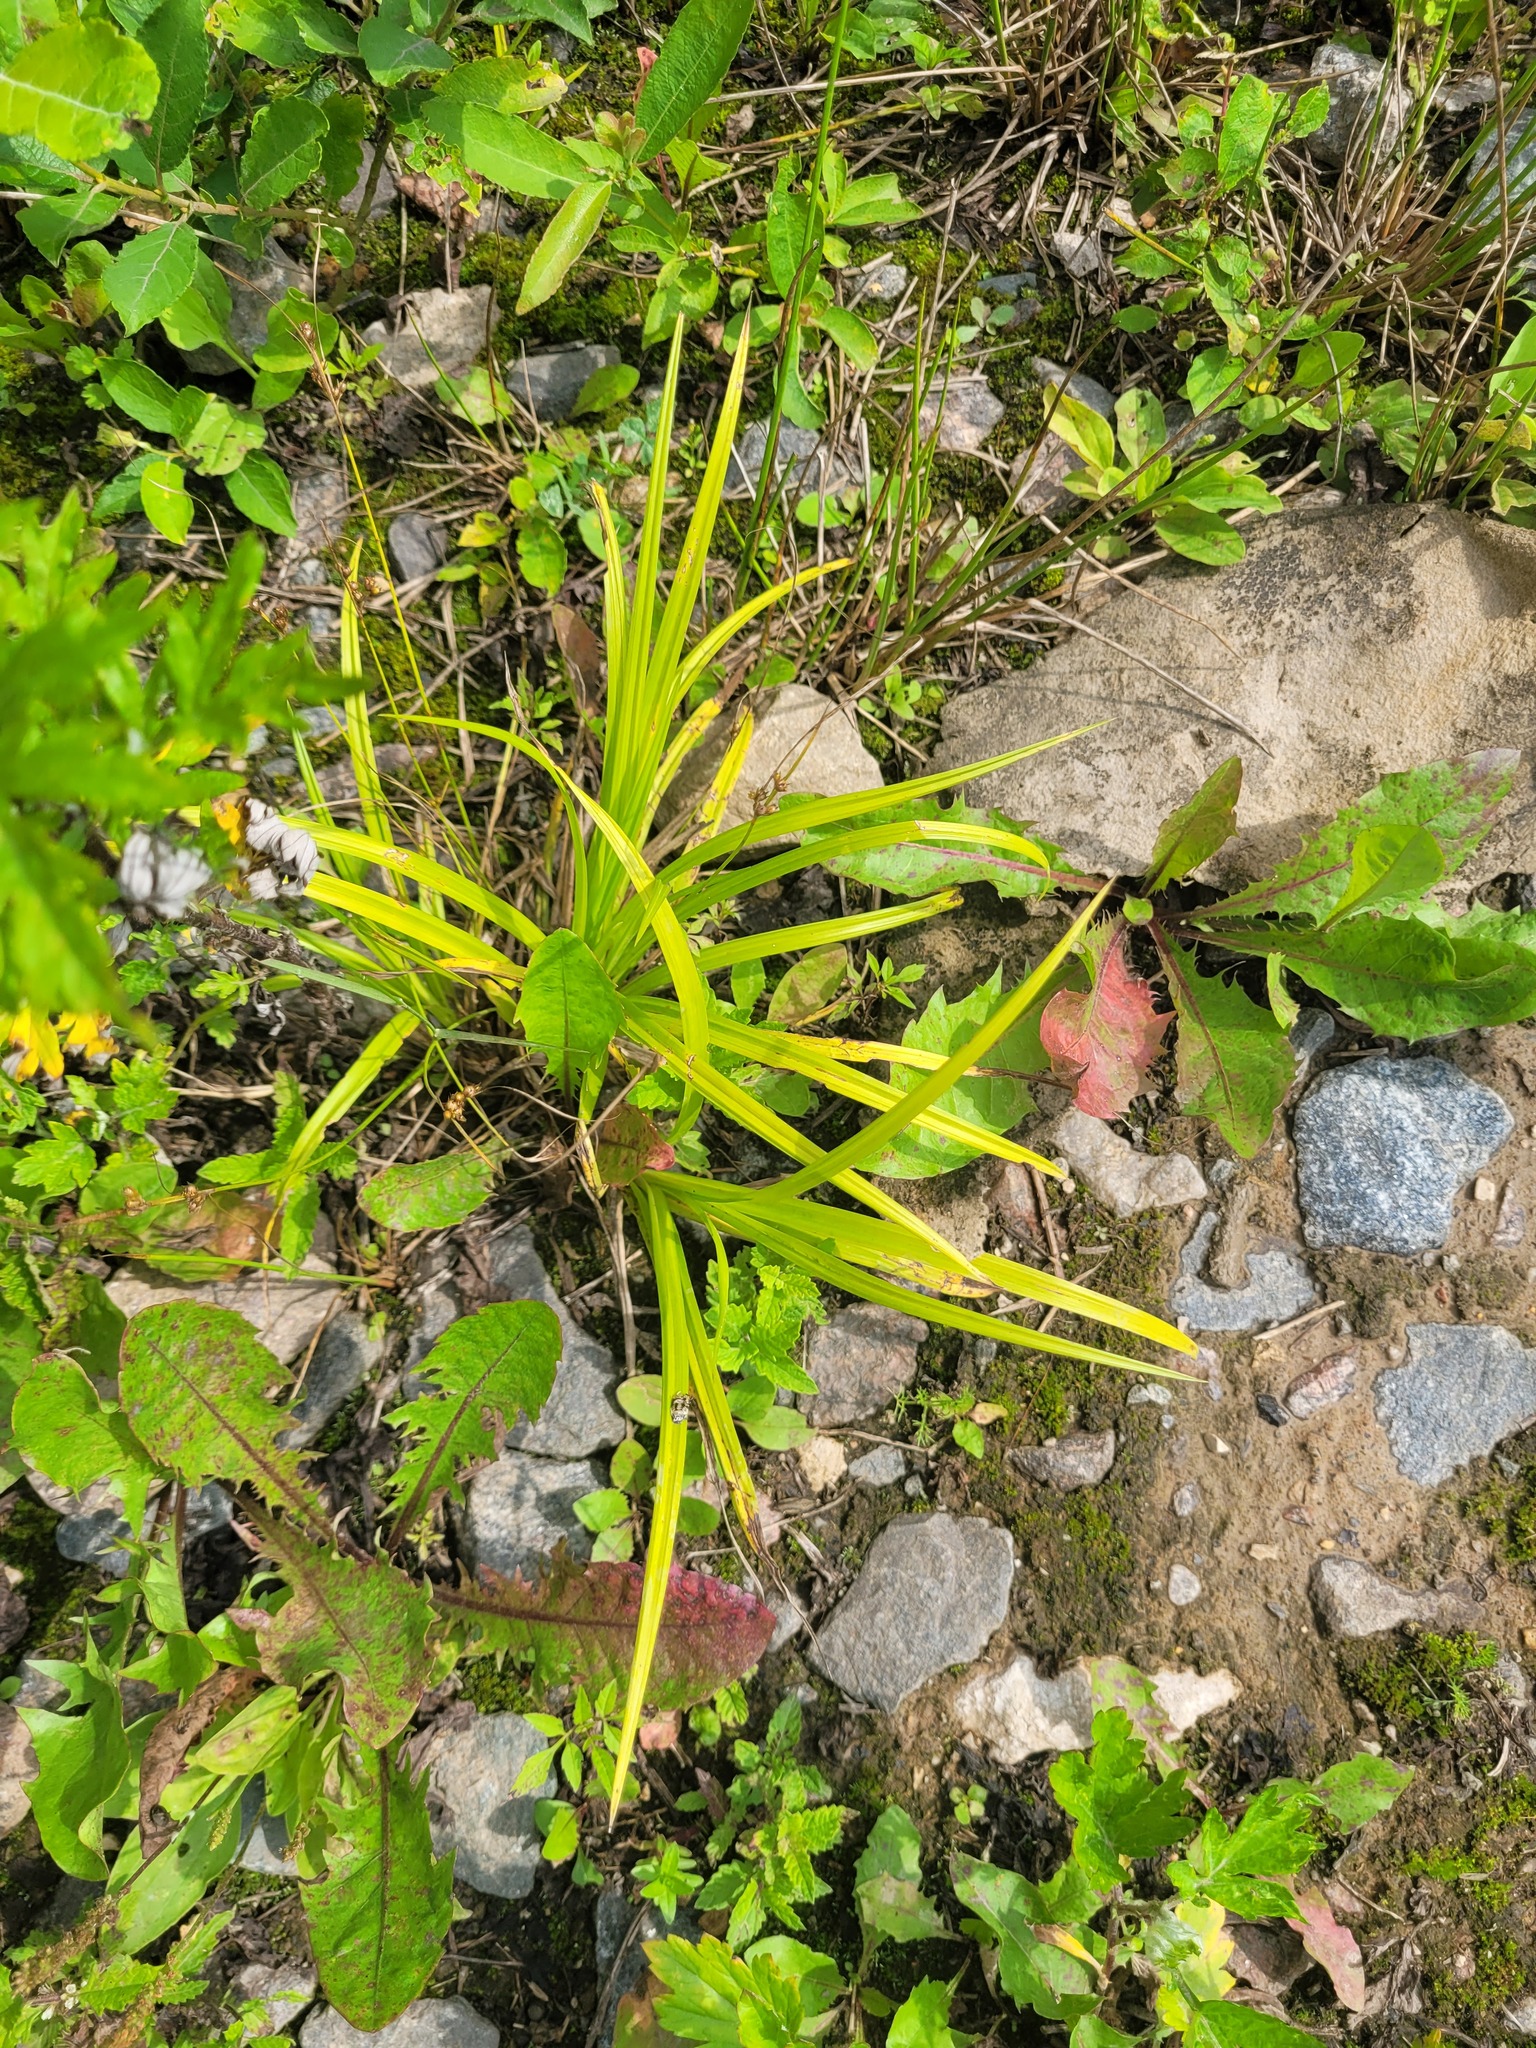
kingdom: Plantae
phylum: Tracheophyta
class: Liliopsida
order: Poales
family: Cyperaceae
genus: Carex
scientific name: Carex sylvatica
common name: Wood-sedge
